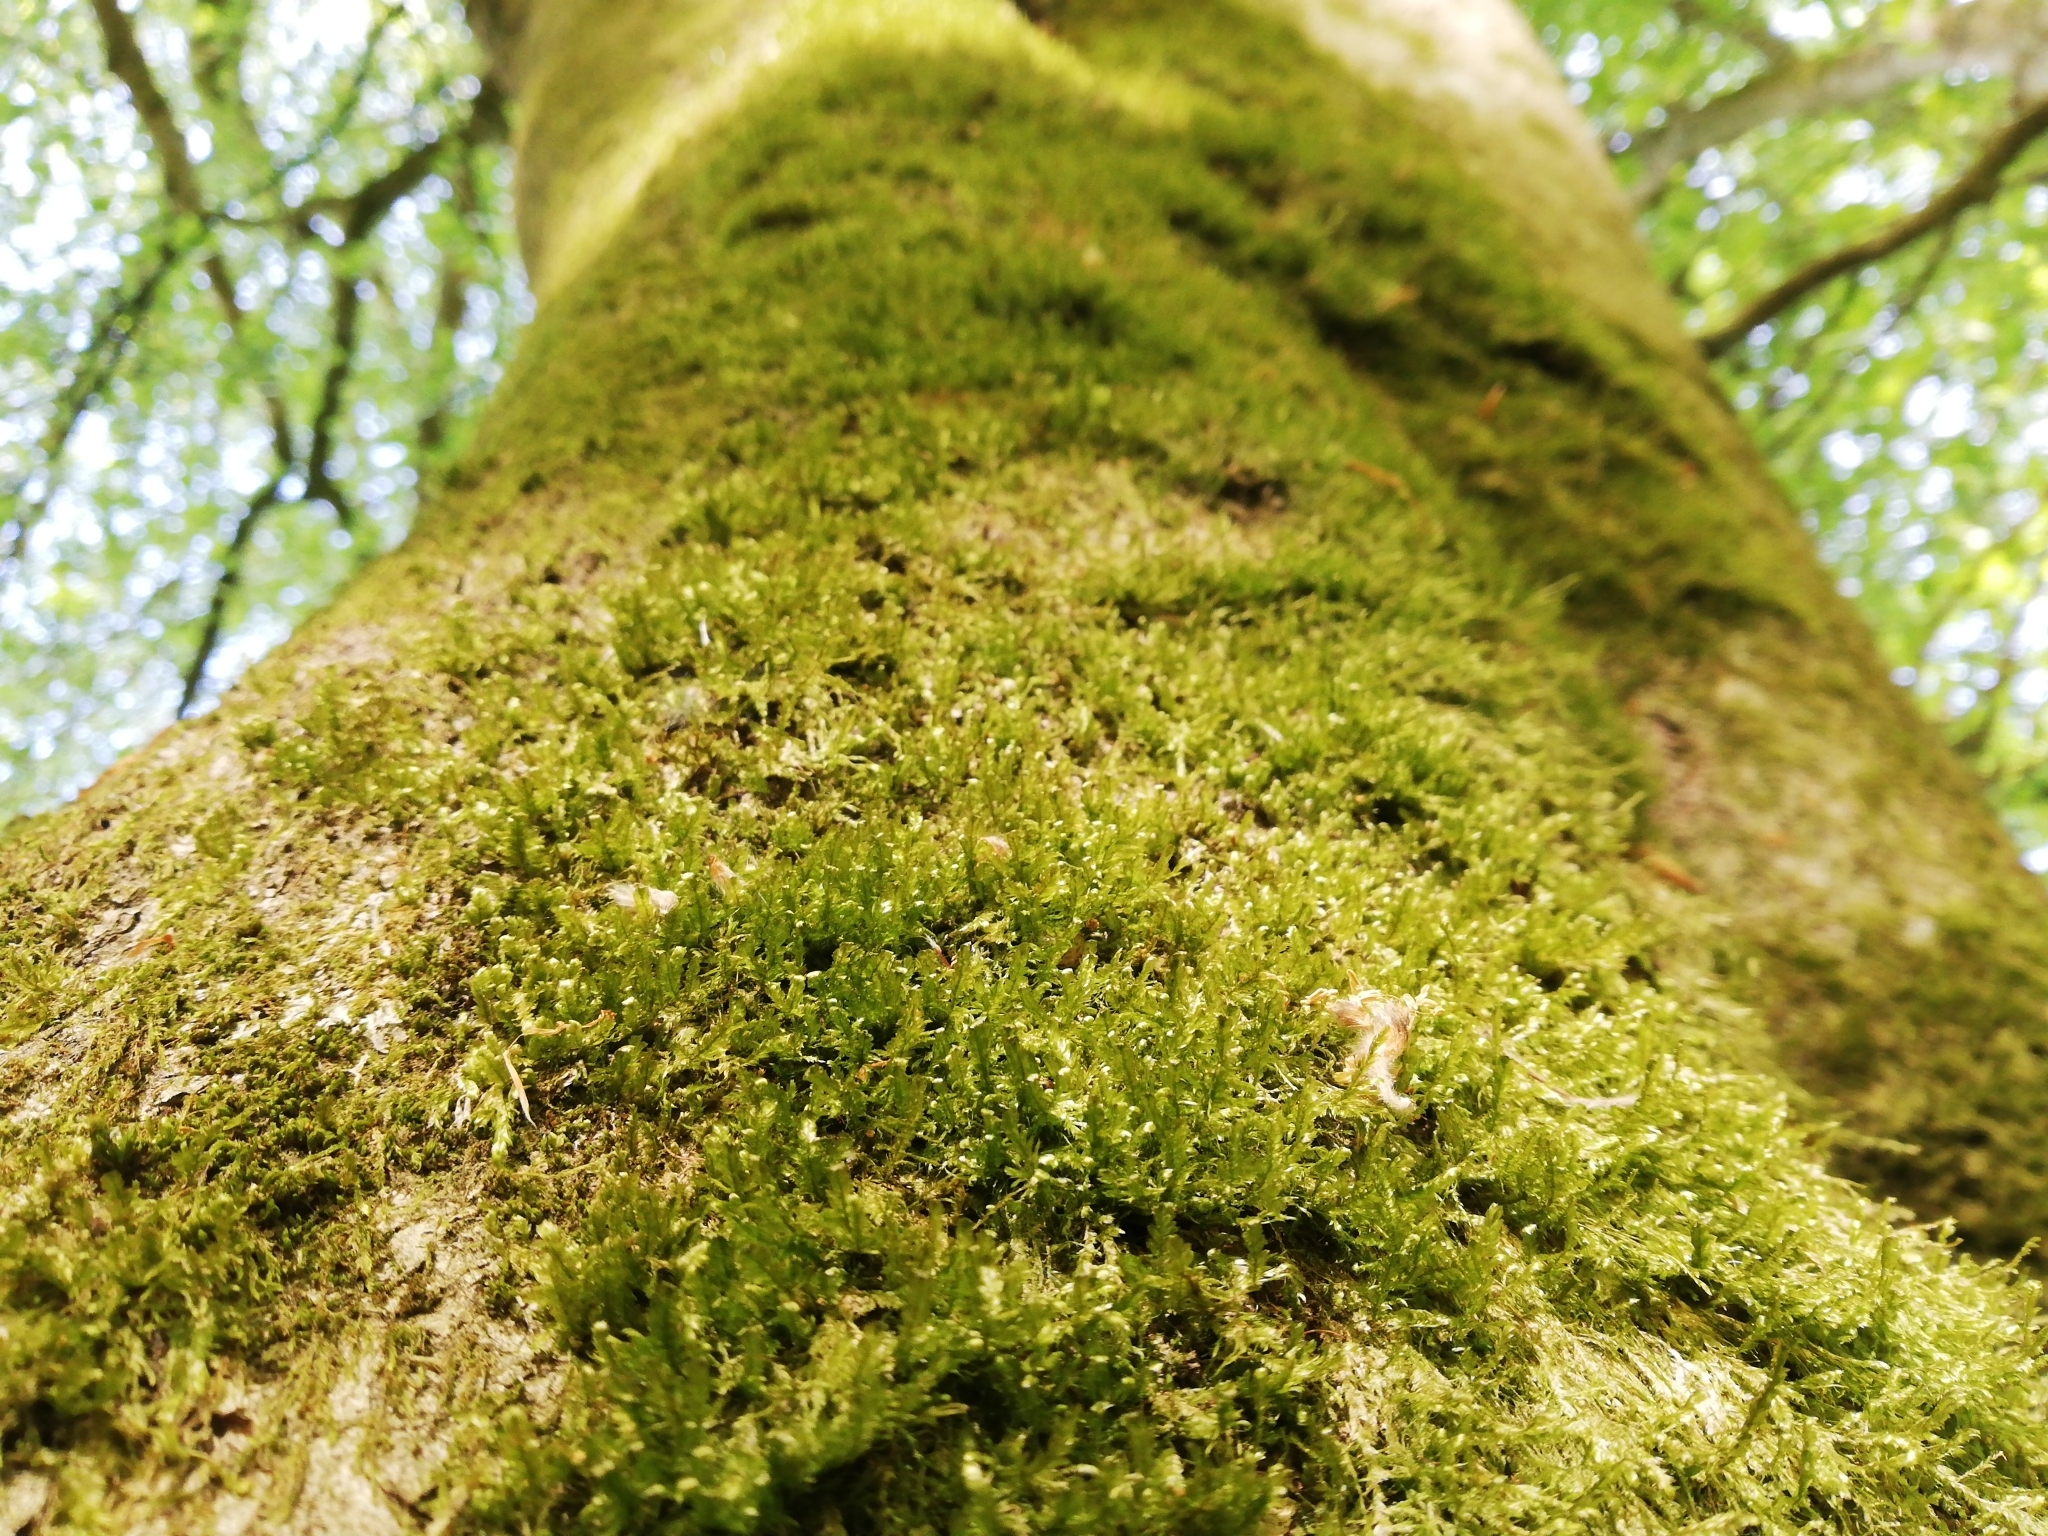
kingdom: Plantae
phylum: Bryophyta
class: Bryopsida
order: Hypnales
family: Neckeraceae
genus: Alleniella
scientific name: Alleniella complanata
